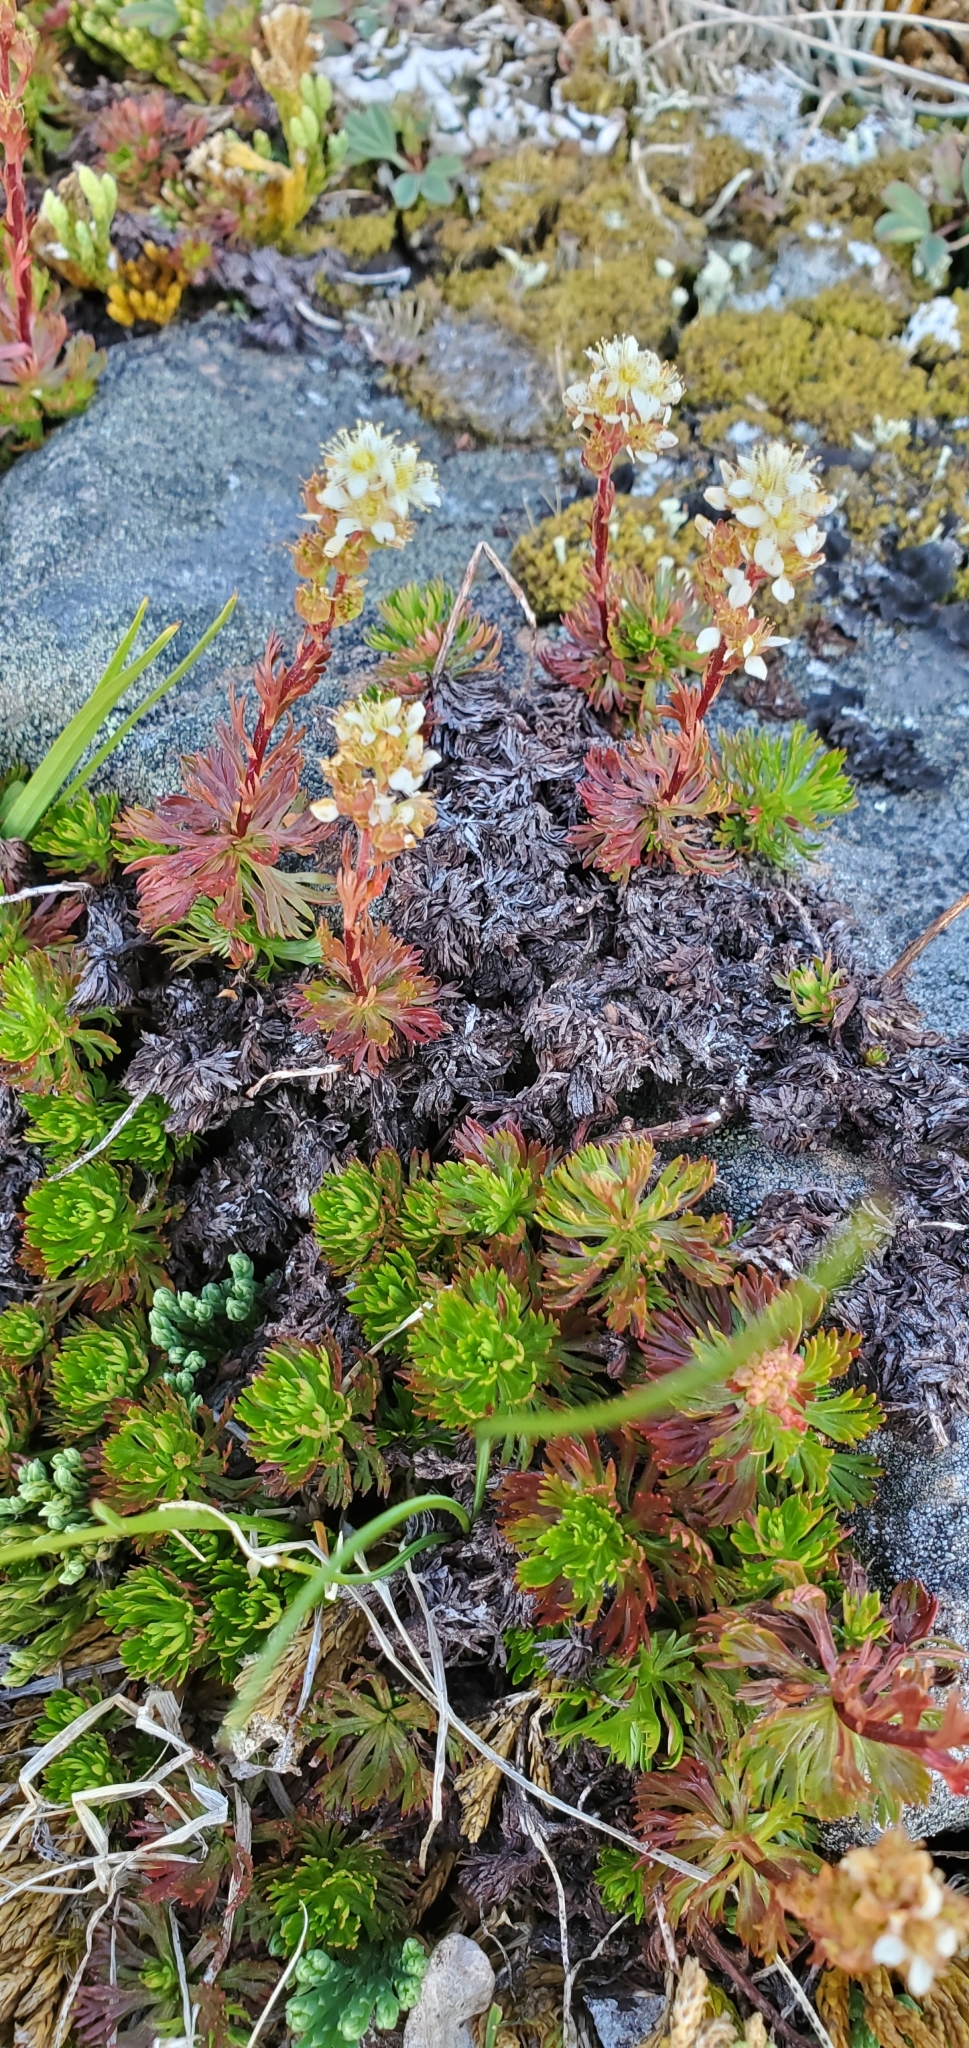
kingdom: Plantae
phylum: Tracheophyta
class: Magnoliopsida
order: Rosales
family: Rosaceae
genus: Luetkea
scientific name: Luetkea pectinata
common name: Partridgefoot
